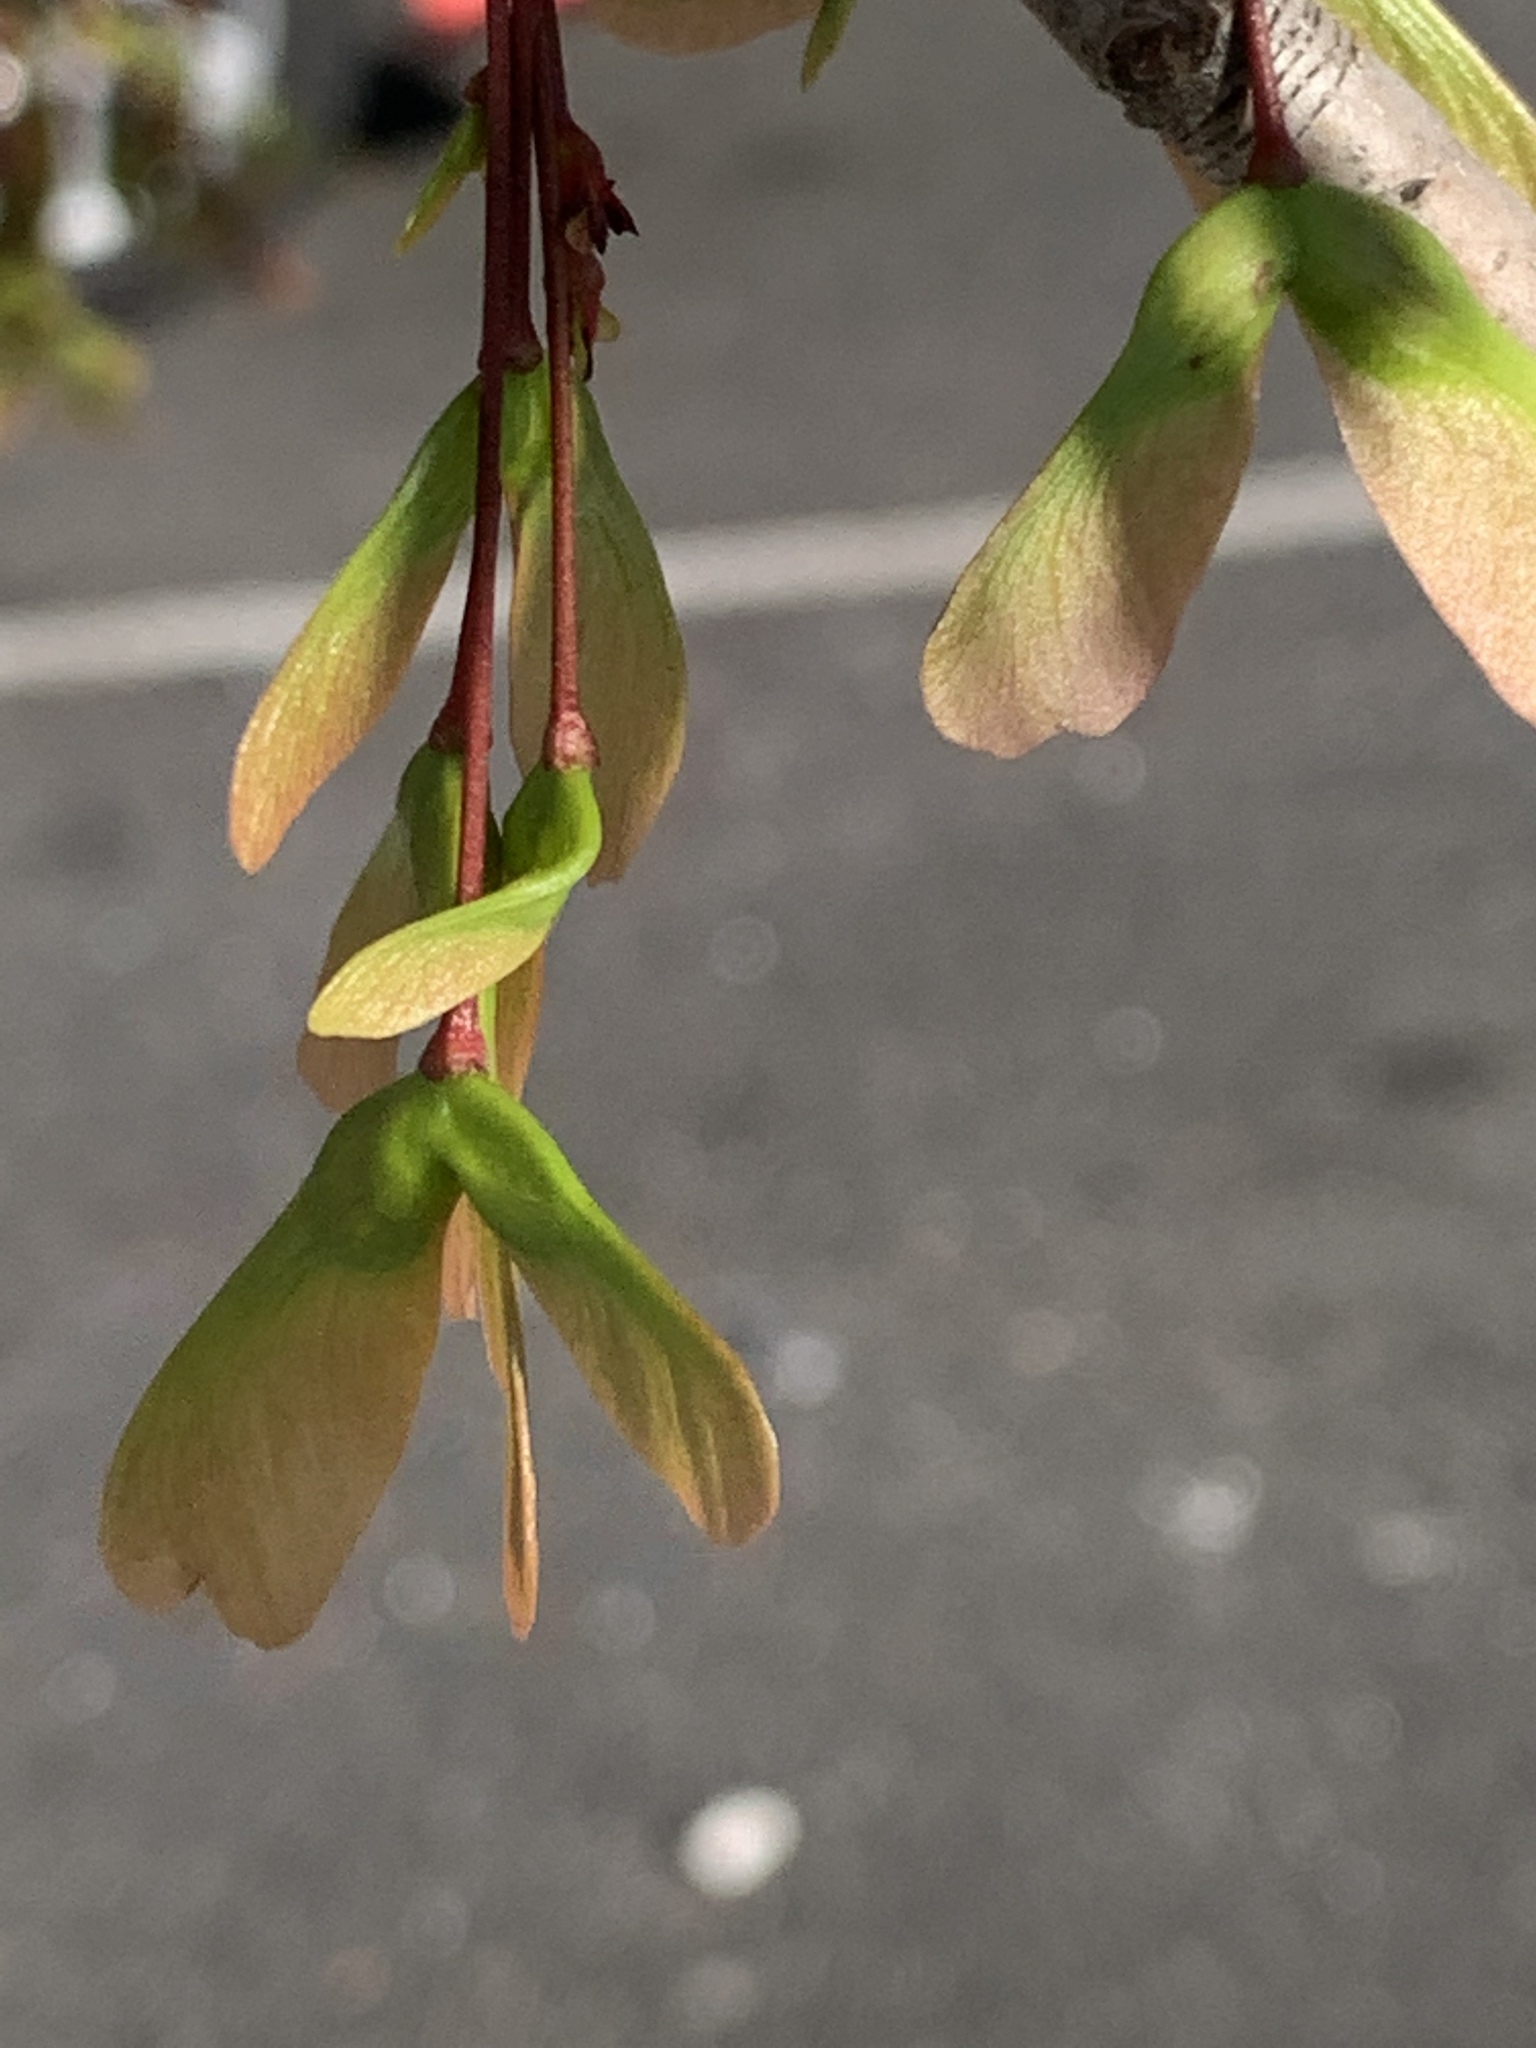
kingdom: Plantae
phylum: Tracheophyta
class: Magnoliopsida
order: Sapindales
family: Sapindaceae
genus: Acer
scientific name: Acer rubrum
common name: Red maple
